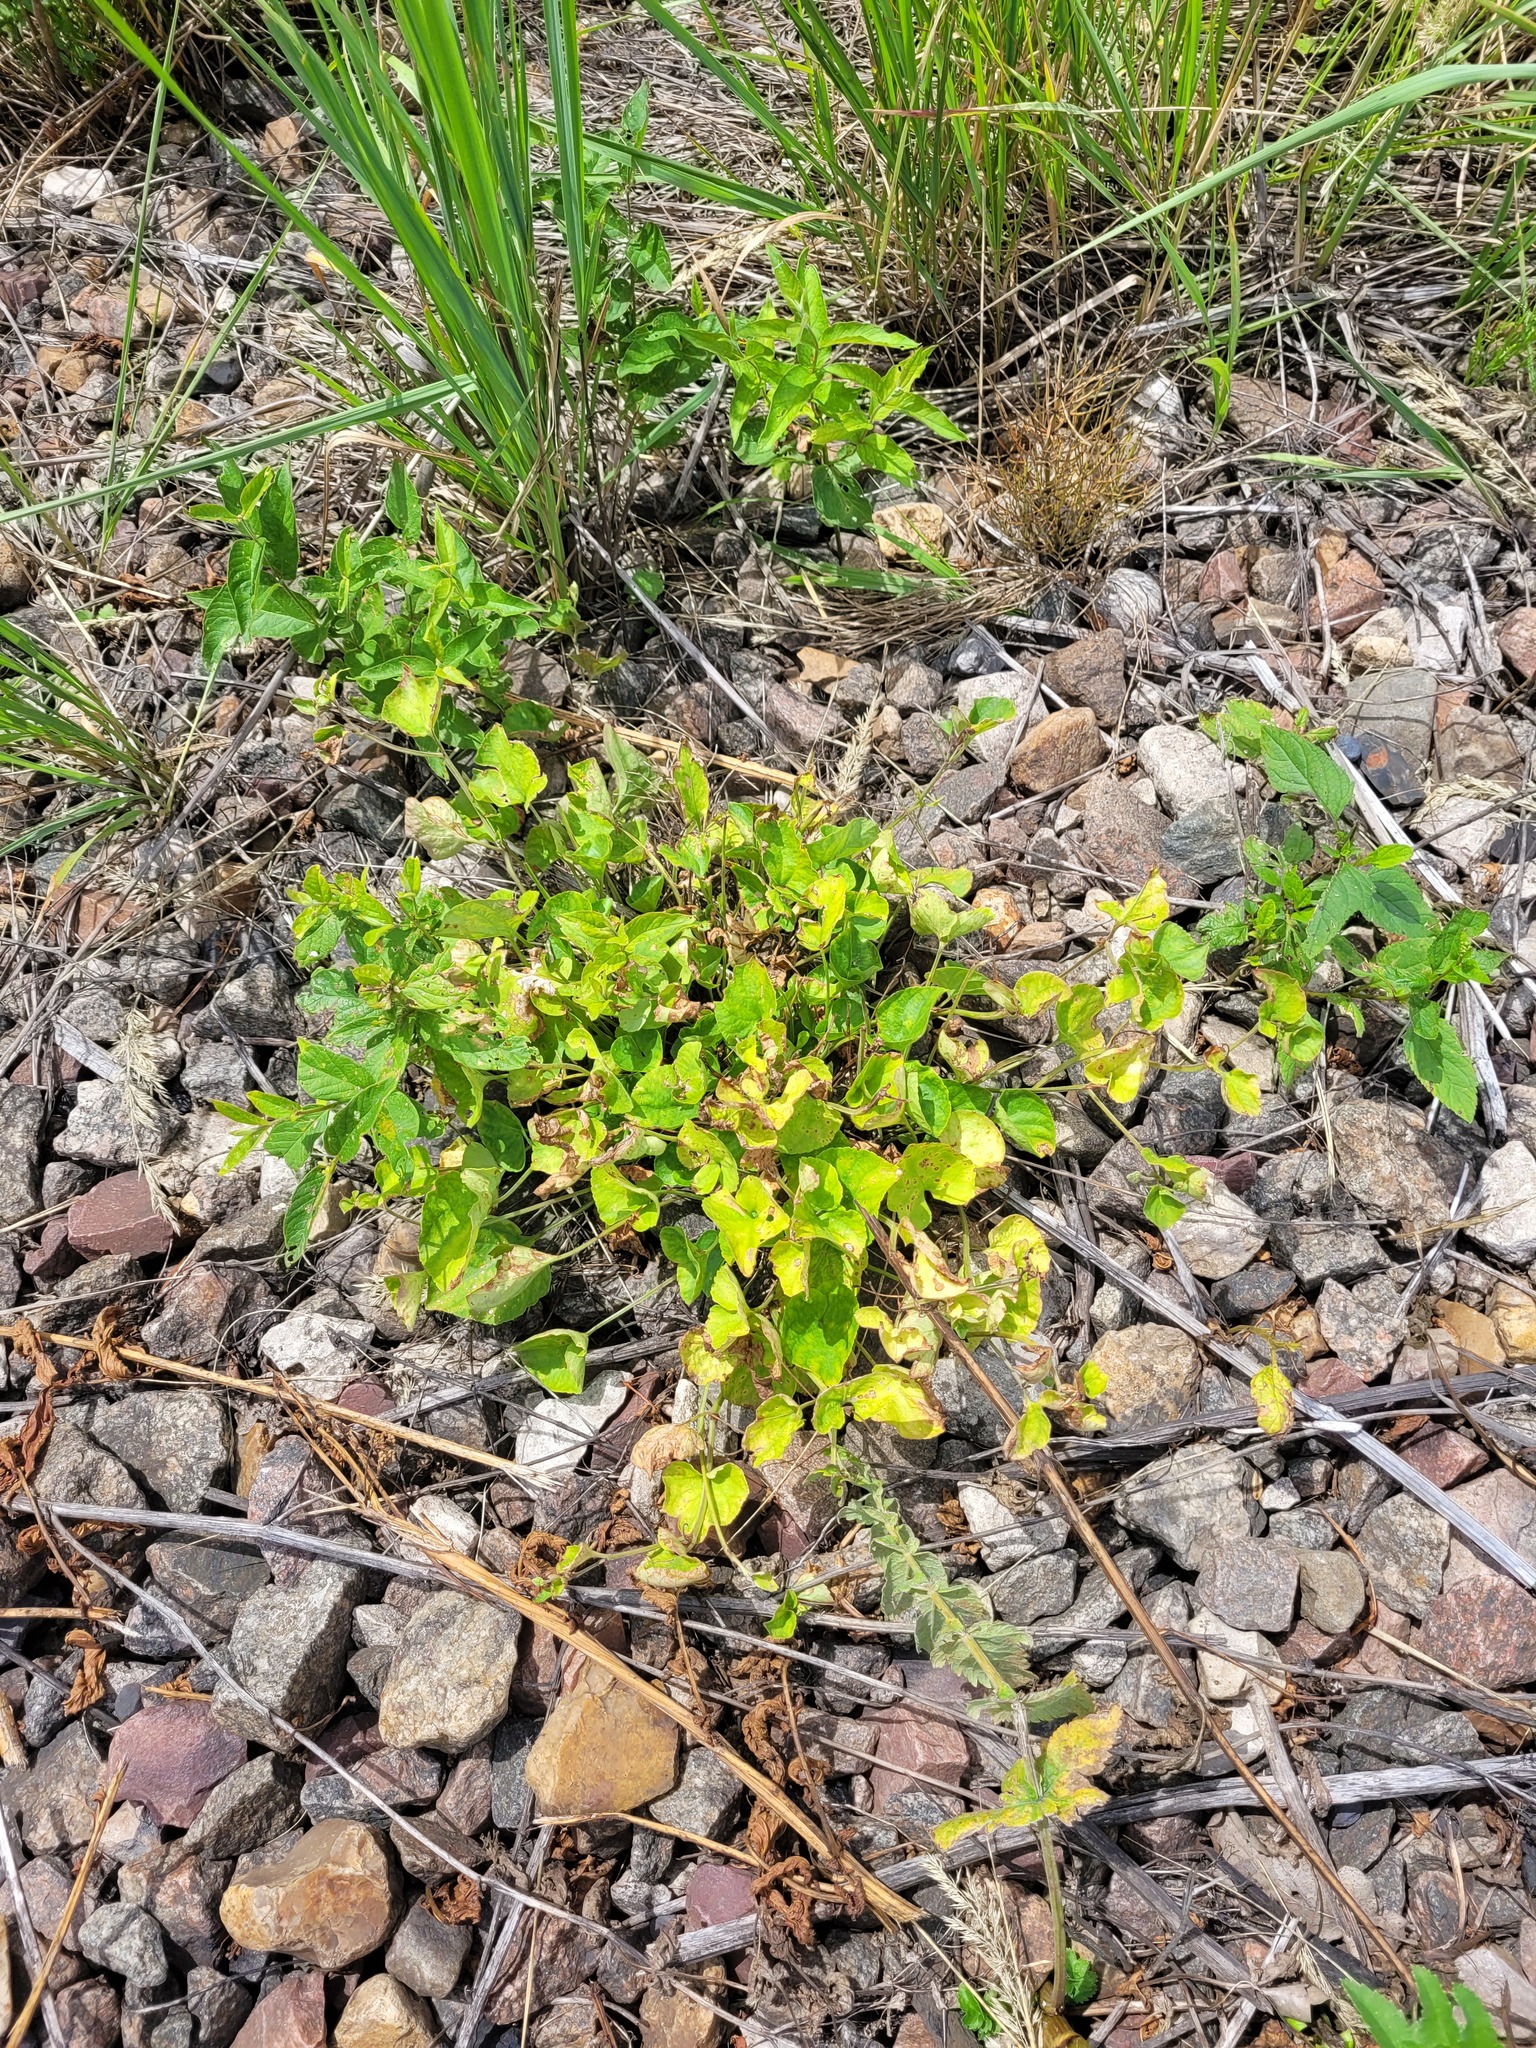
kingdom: Plantae
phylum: Tracheophyta
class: Magnoliopsida
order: Malpighiales
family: Violaceae
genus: Viola
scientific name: Viola rupestris
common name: Teesdale violet
